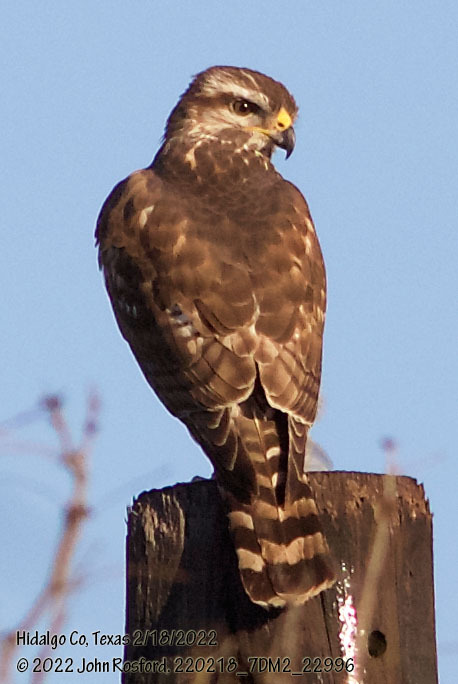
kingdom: Animalia
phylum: Chordata
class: Aves
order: Accipitriformes
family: Accipitridae
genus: Buteo
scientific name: Buteo nitidus
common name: Grey-lined hawk
